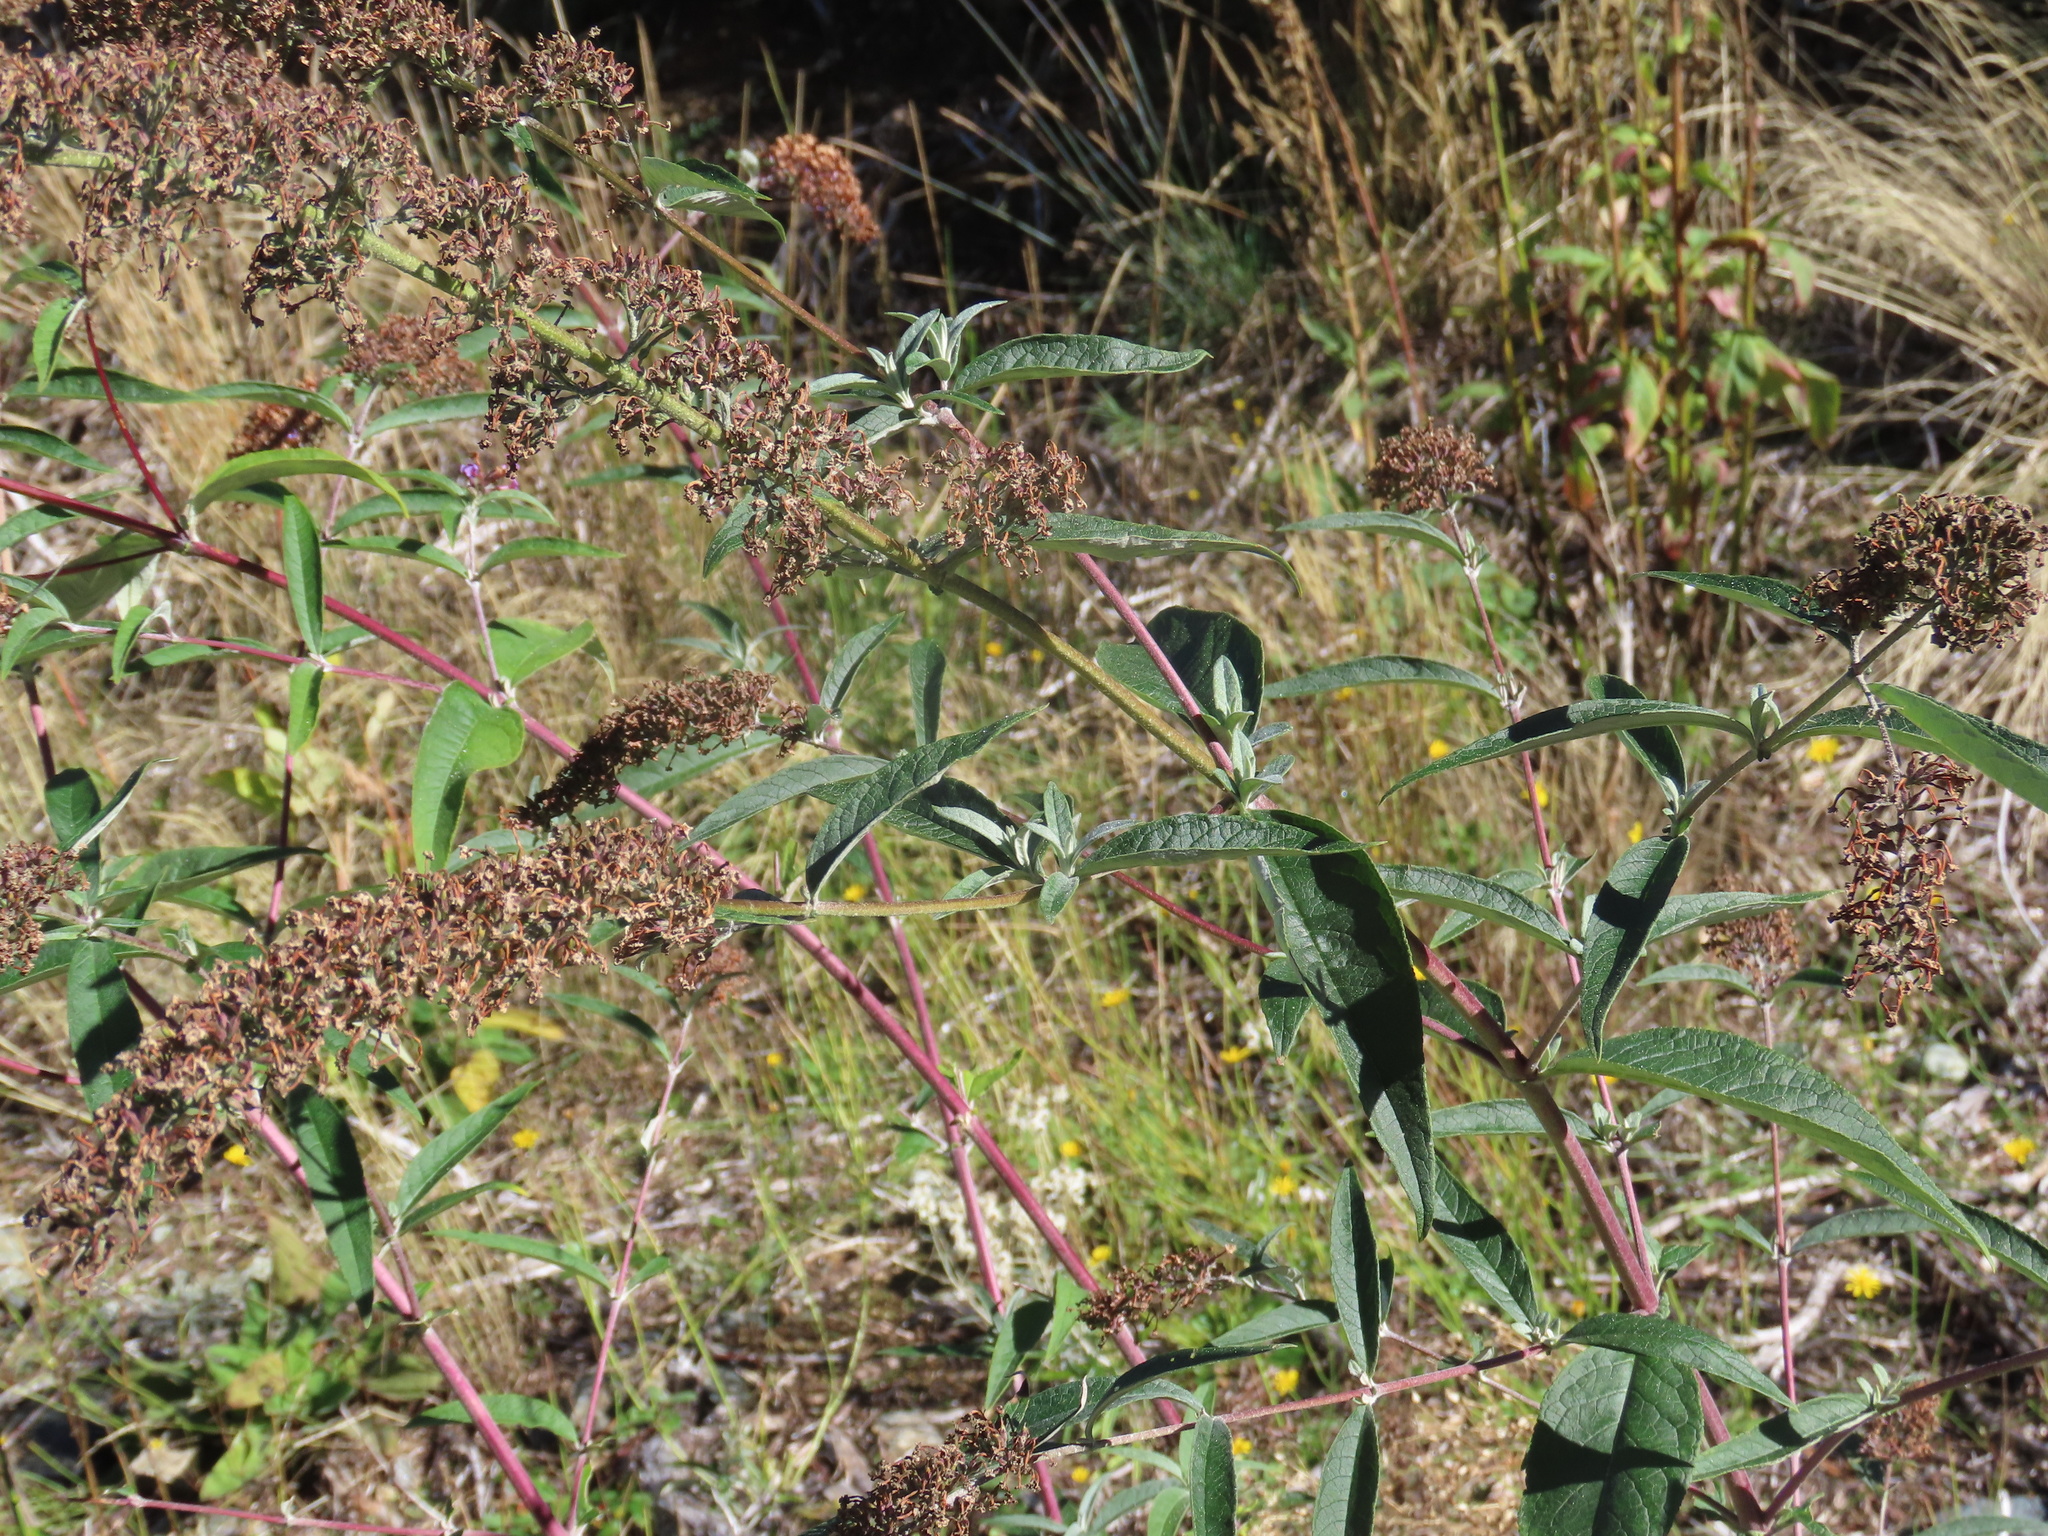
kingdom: Plantae
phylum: Tracheophyta
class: Magnoliopsida
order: Lamiales
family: Scrophulariaceae
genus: Buddleja
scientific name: Buddleja davidii
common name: Butterfly-bush
